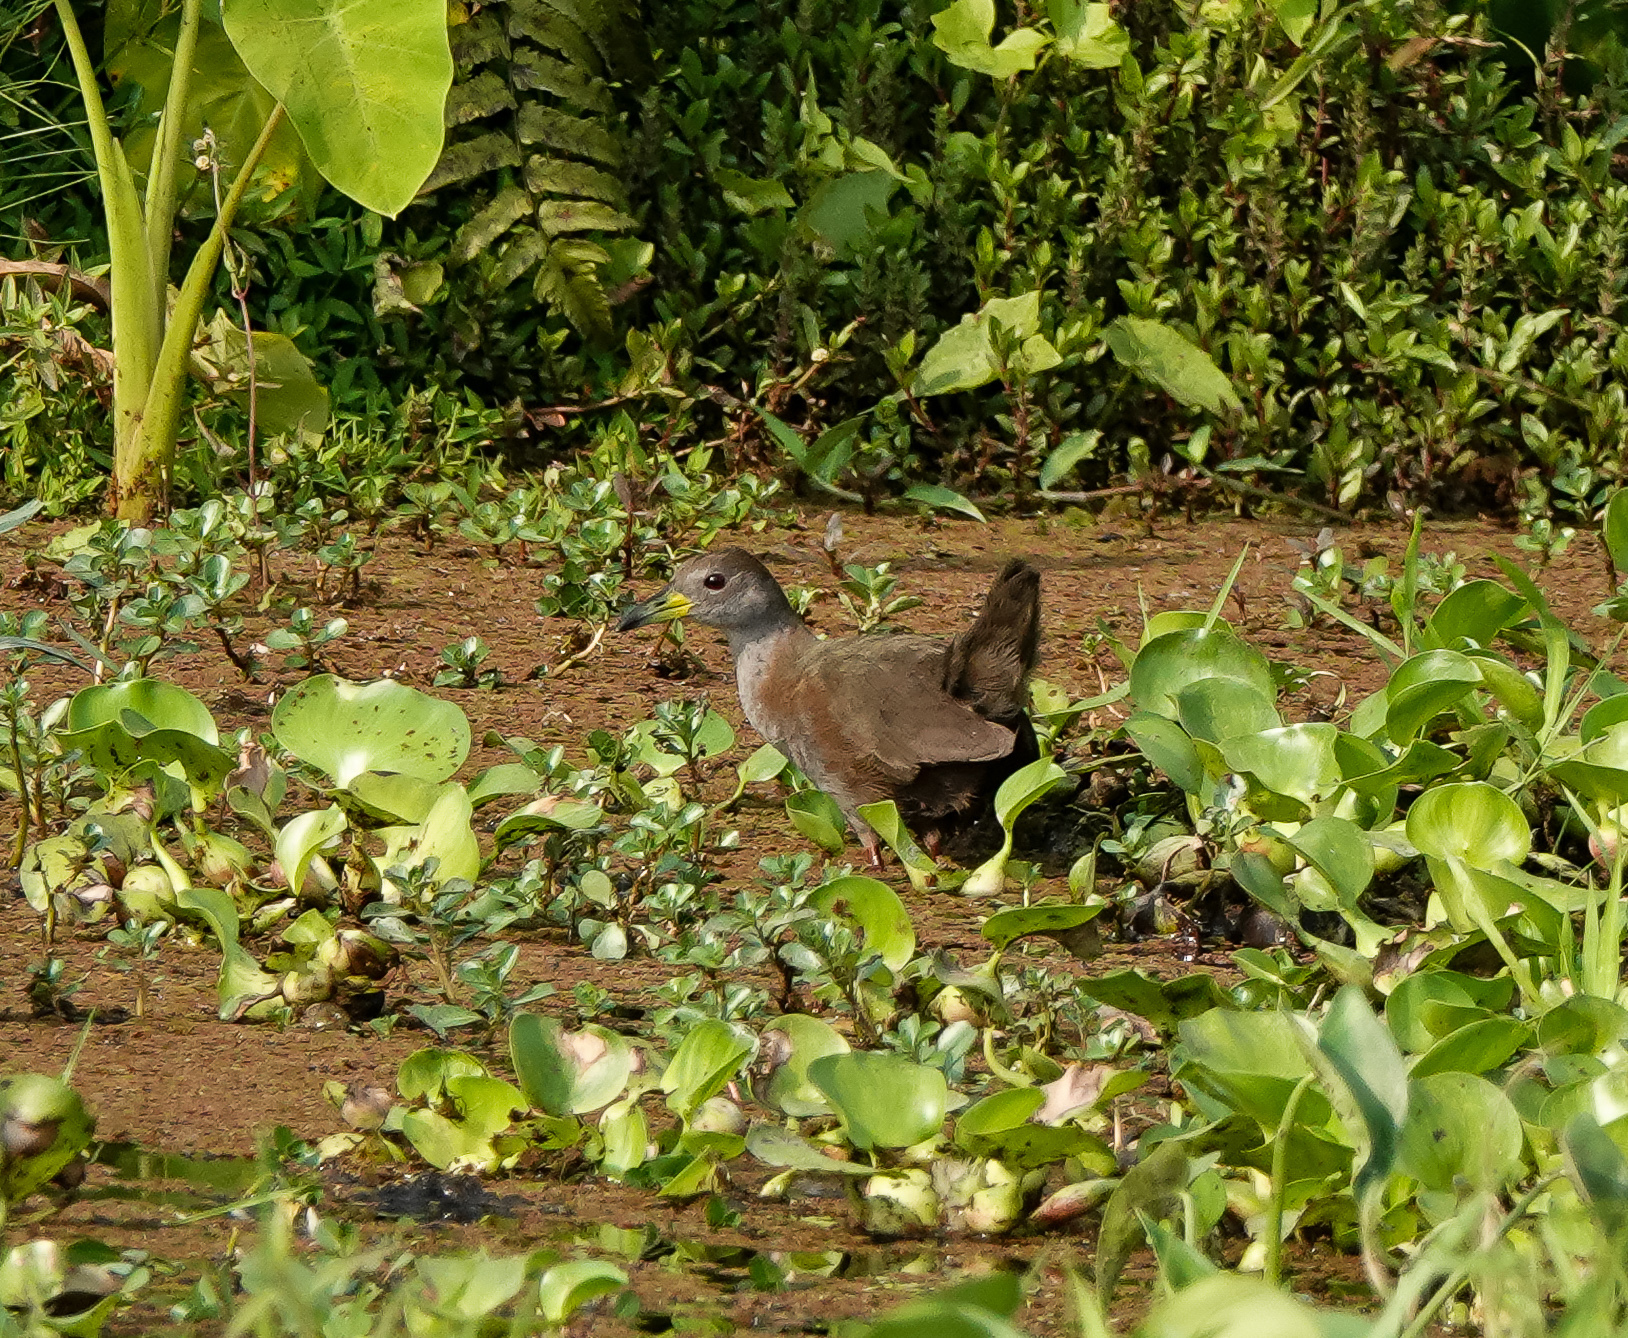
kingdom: Animalia
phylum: Chordata
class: Aves
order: Gruiformes
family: Rallidae
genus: Amaurornis
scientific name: Amaurornis akool
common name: Brown bush-hen
